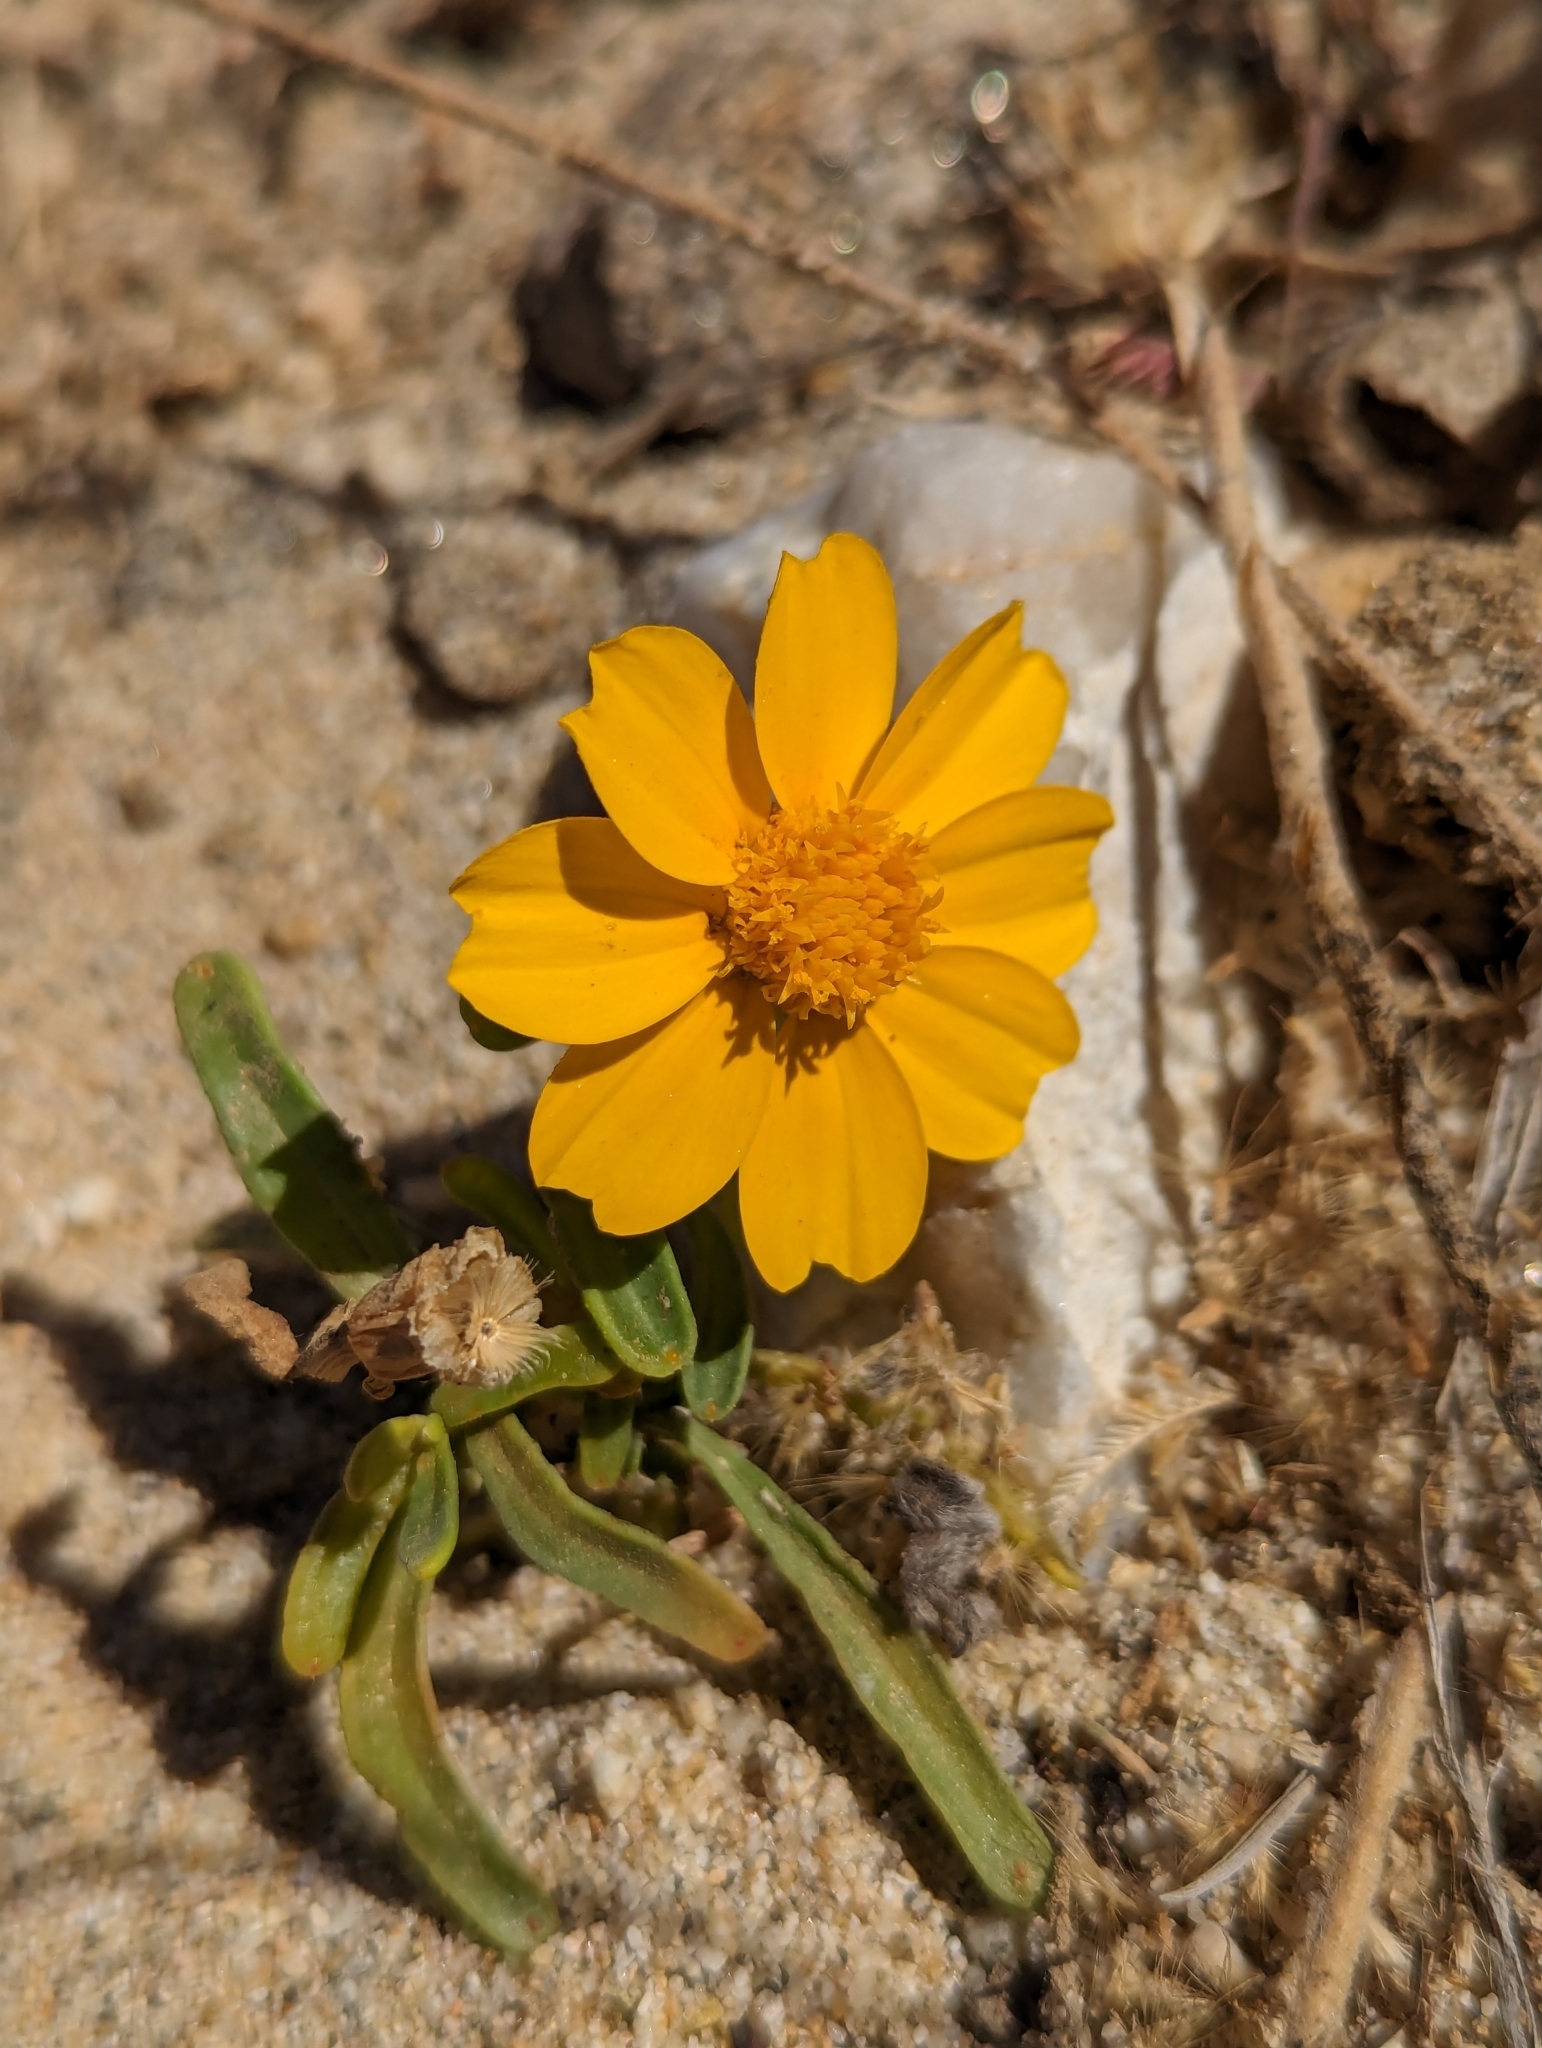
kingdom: Plantae
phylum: Tracheophyta
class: Magnoliopsida
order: Asterales
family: Asteraceae
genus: Boeberastrum
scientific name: Boeberastrum littoralis
